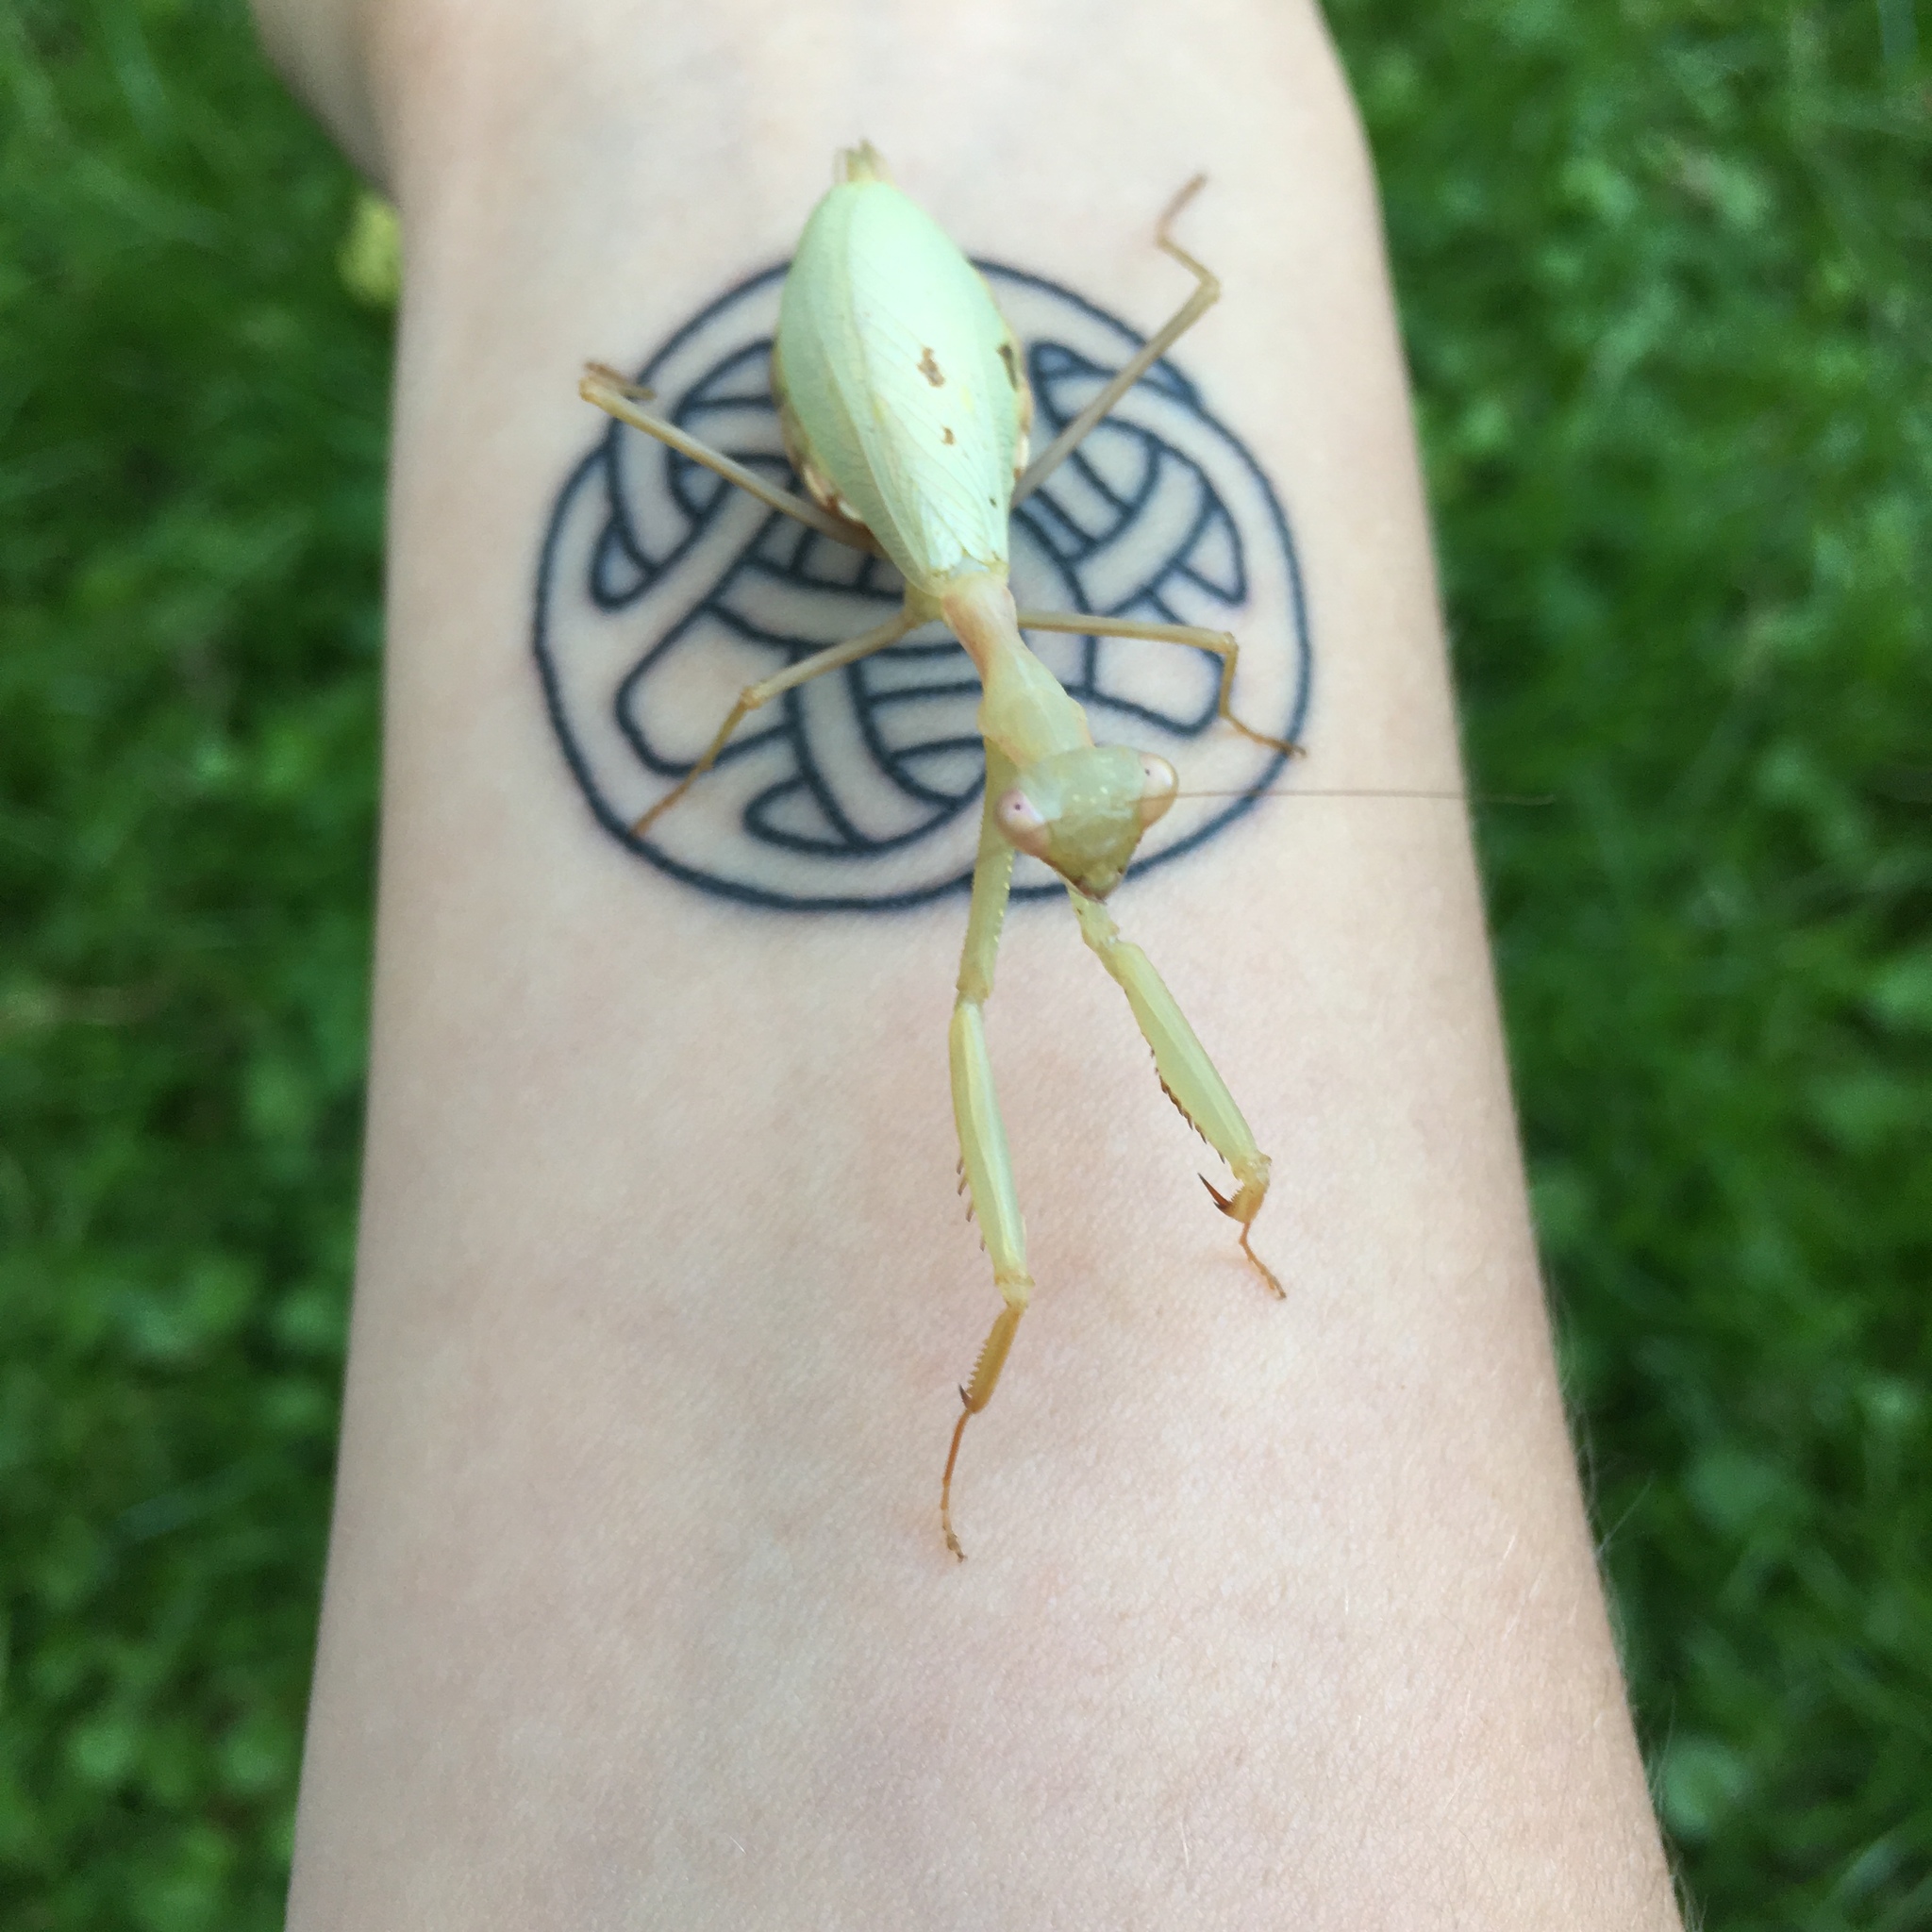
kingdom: Animalia
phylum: Arthropoda
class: Insecta
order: Mantodea
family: Miomantidae
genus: Miomantis
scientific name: Miomantis caffra
